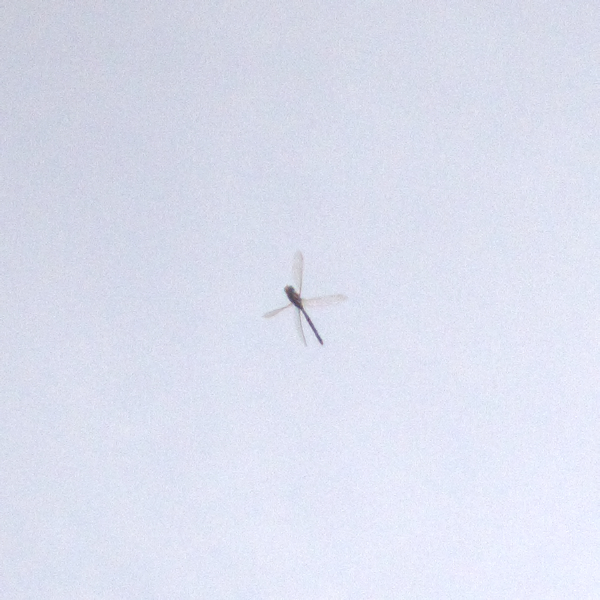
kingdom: Animalia
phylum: Arthropoda
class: Insecta
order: Odonata
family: Aeshnidae
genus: Aeshna
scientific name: Aeshna brevistyla
